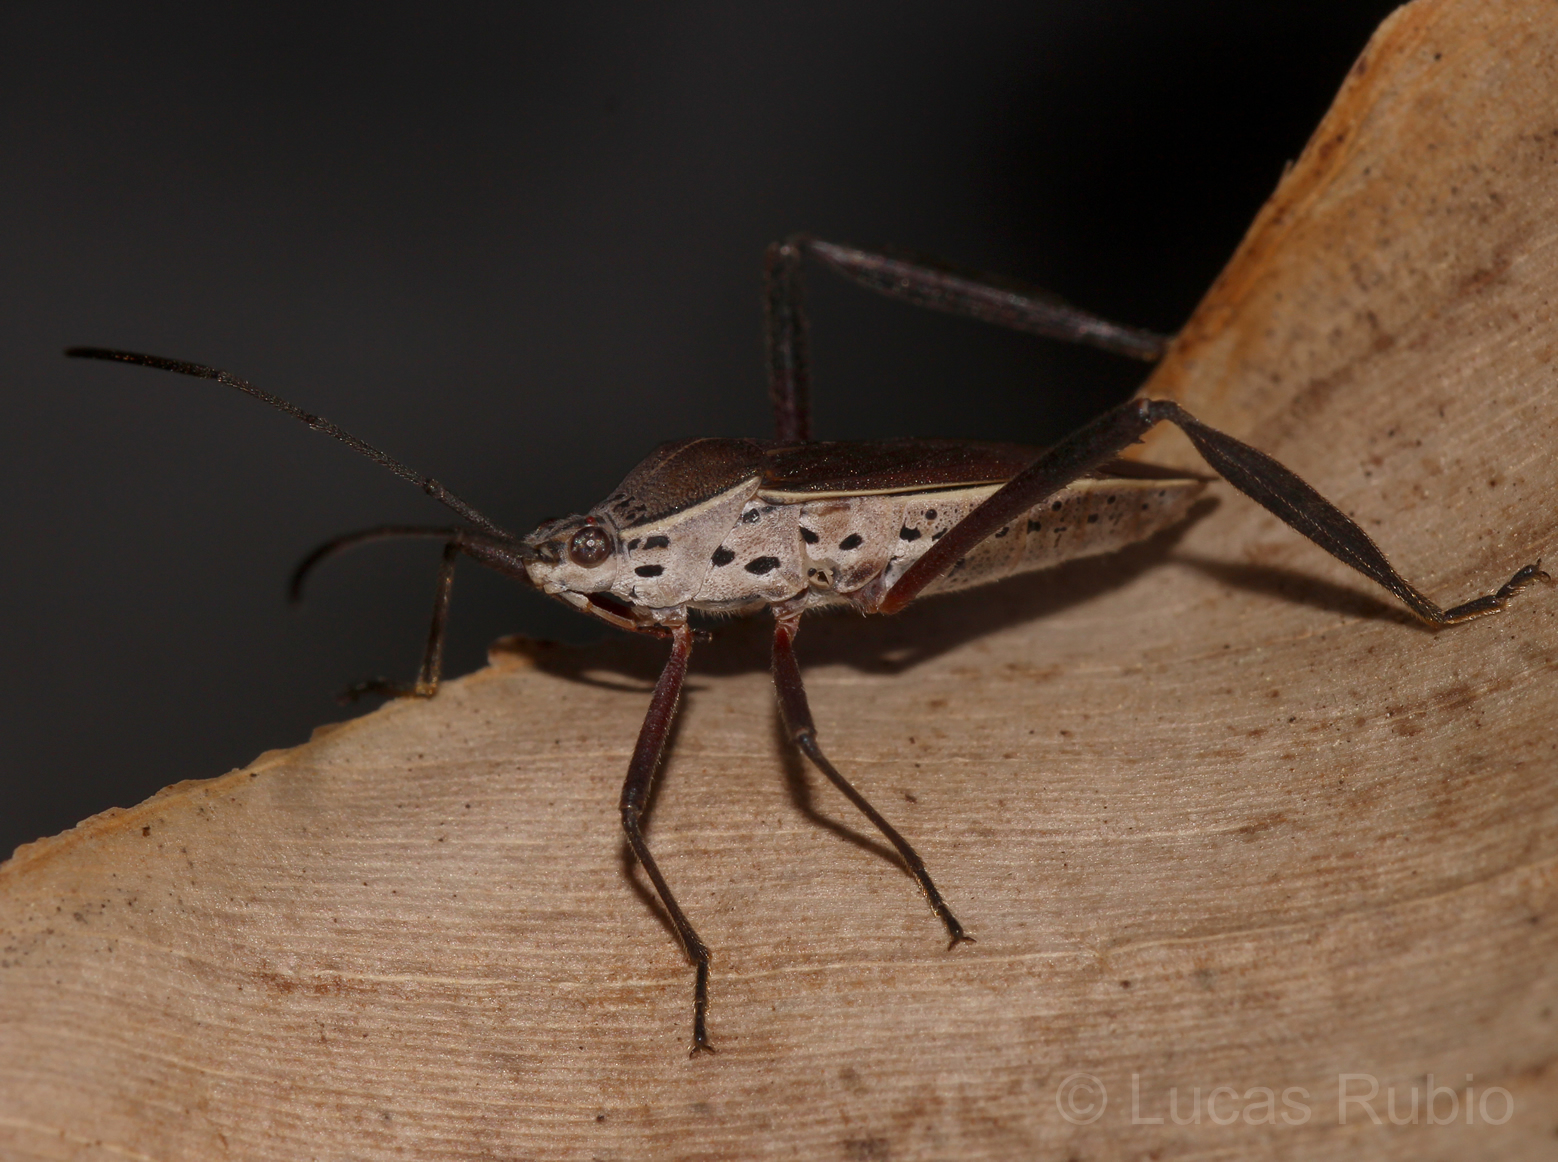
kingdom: Animalia
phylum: Arthropoda
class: Insecta
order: Hemiptera
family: Coreidae
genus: Plaxiscelis
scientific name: Plaxiscelis fusca
